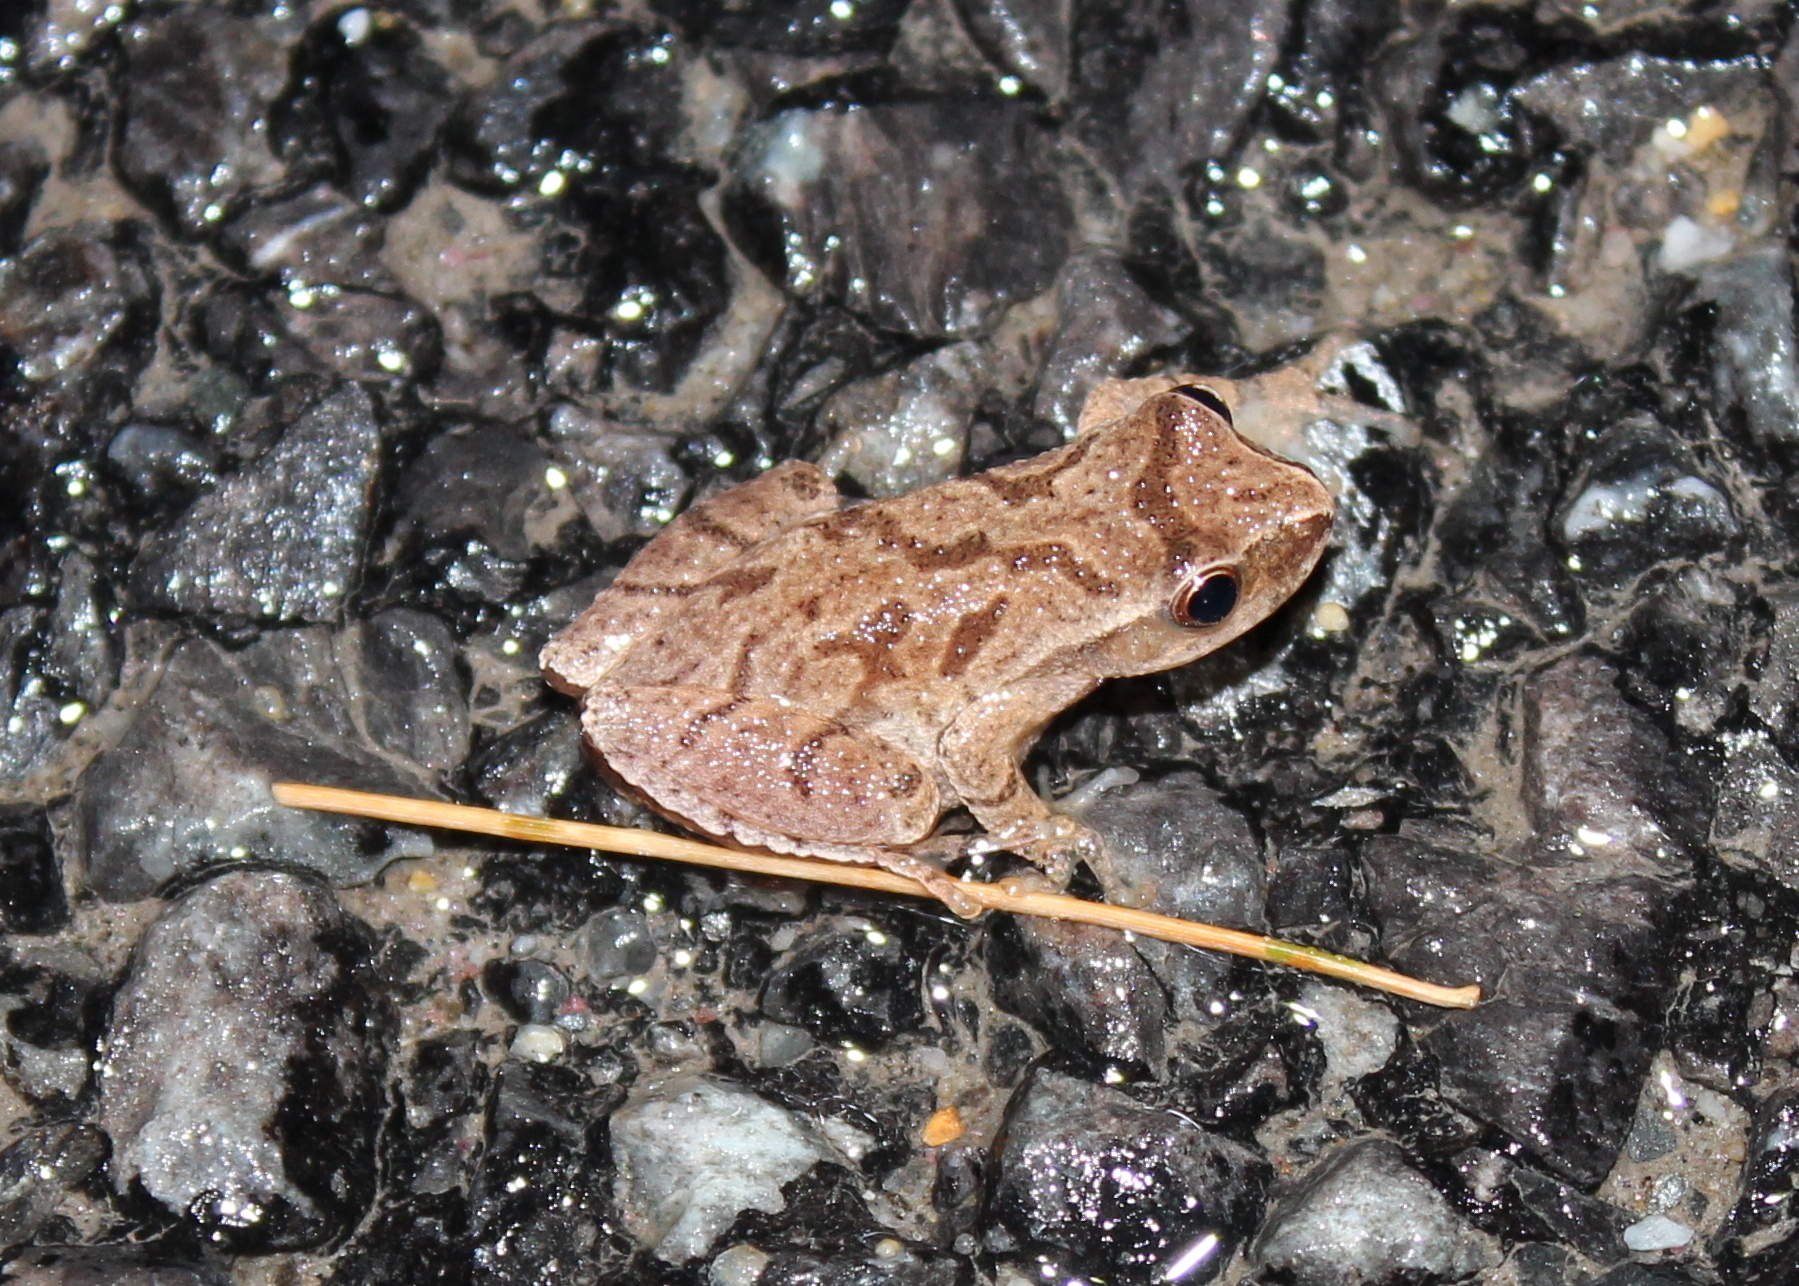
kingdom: Animalia
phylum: Chordata
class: Amphibia
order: Anura
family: Hylidae
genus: Pseudacris
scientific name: Pseudacris crucifer
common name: Spring peeper
